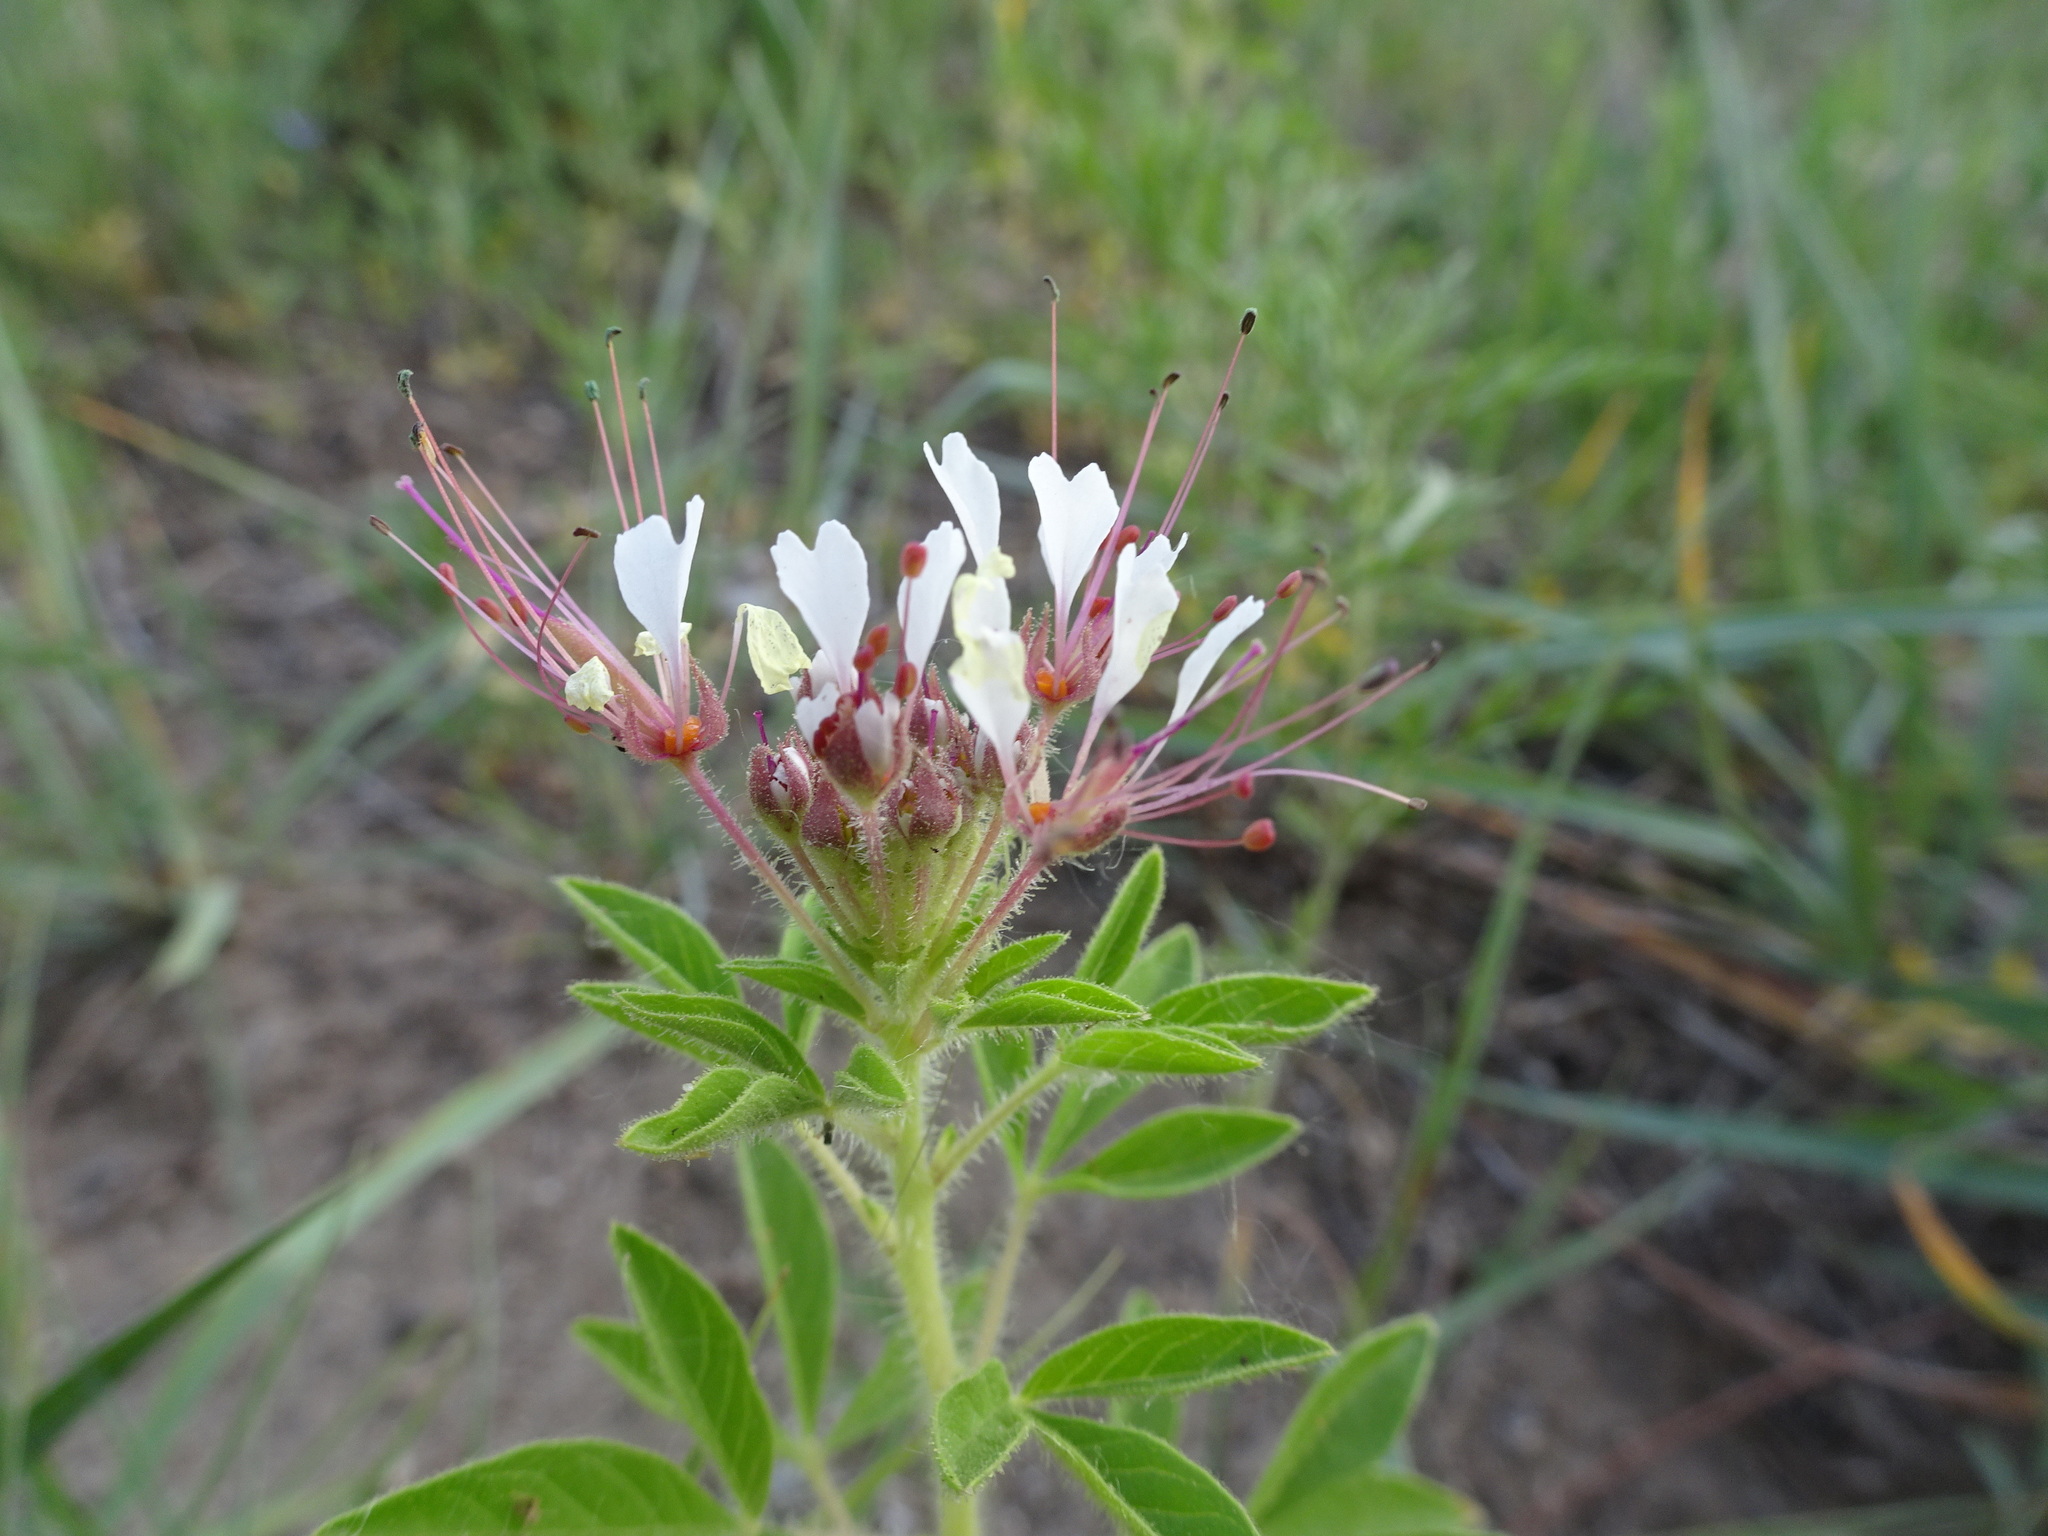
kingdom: Plantae
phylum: Tracheophyta
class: Magnoliopsida
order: Brassicales
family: Cleomaceae
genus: Polanisia
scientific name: Polanisia dodecandra
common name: Clammyweed
